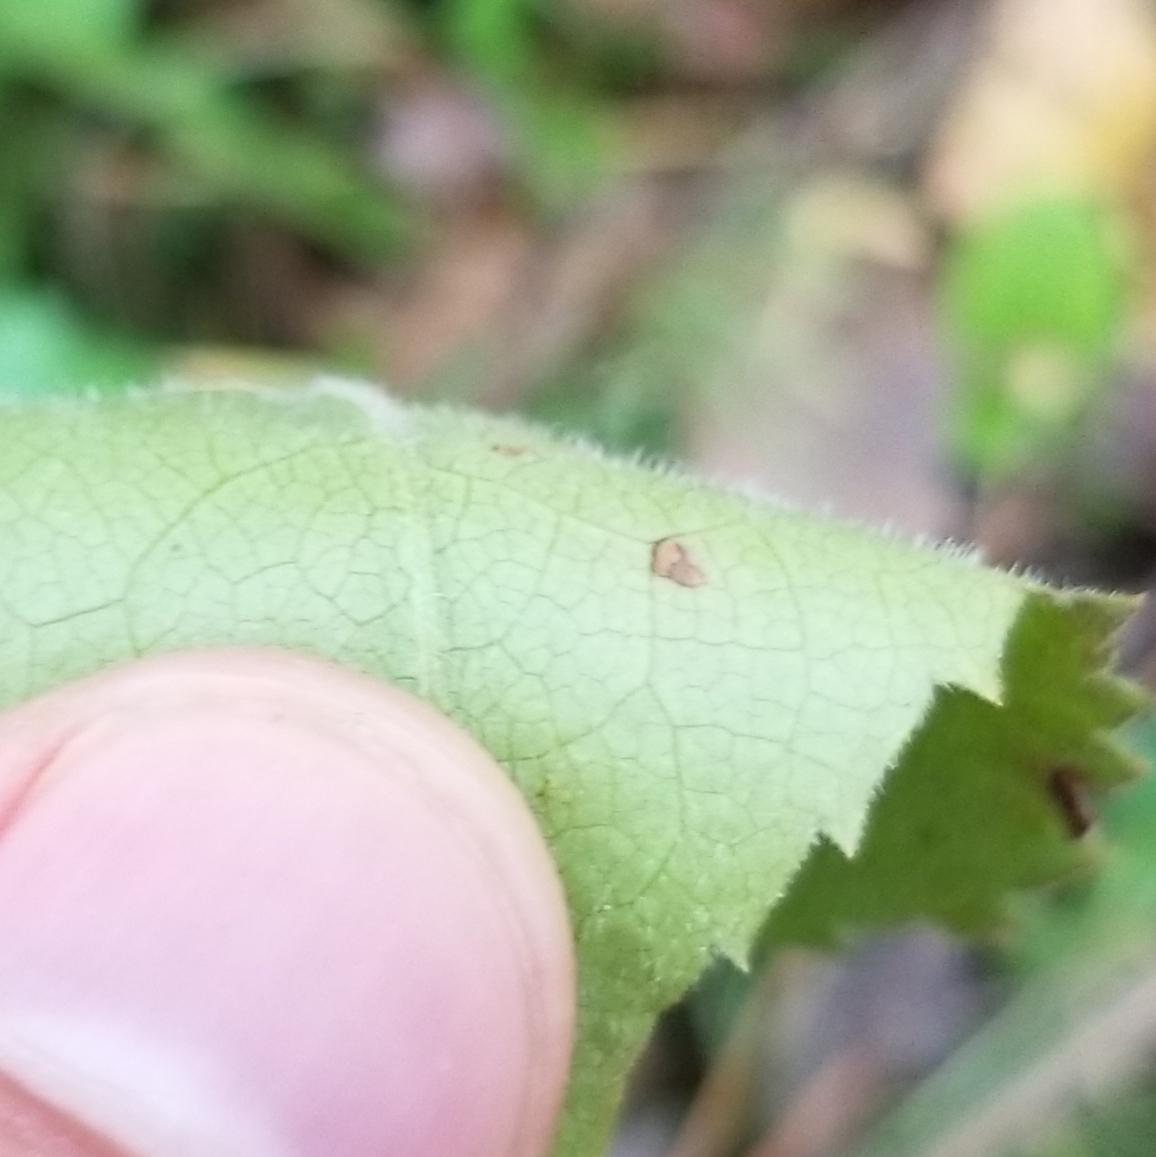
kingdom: Plantae
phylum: Tracheophyta
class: Magnoliopsida
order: Asterales
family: Asteraceae
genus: Symphyotrichum
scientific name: Symphyotrichum cordifolium
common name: Beeweed
